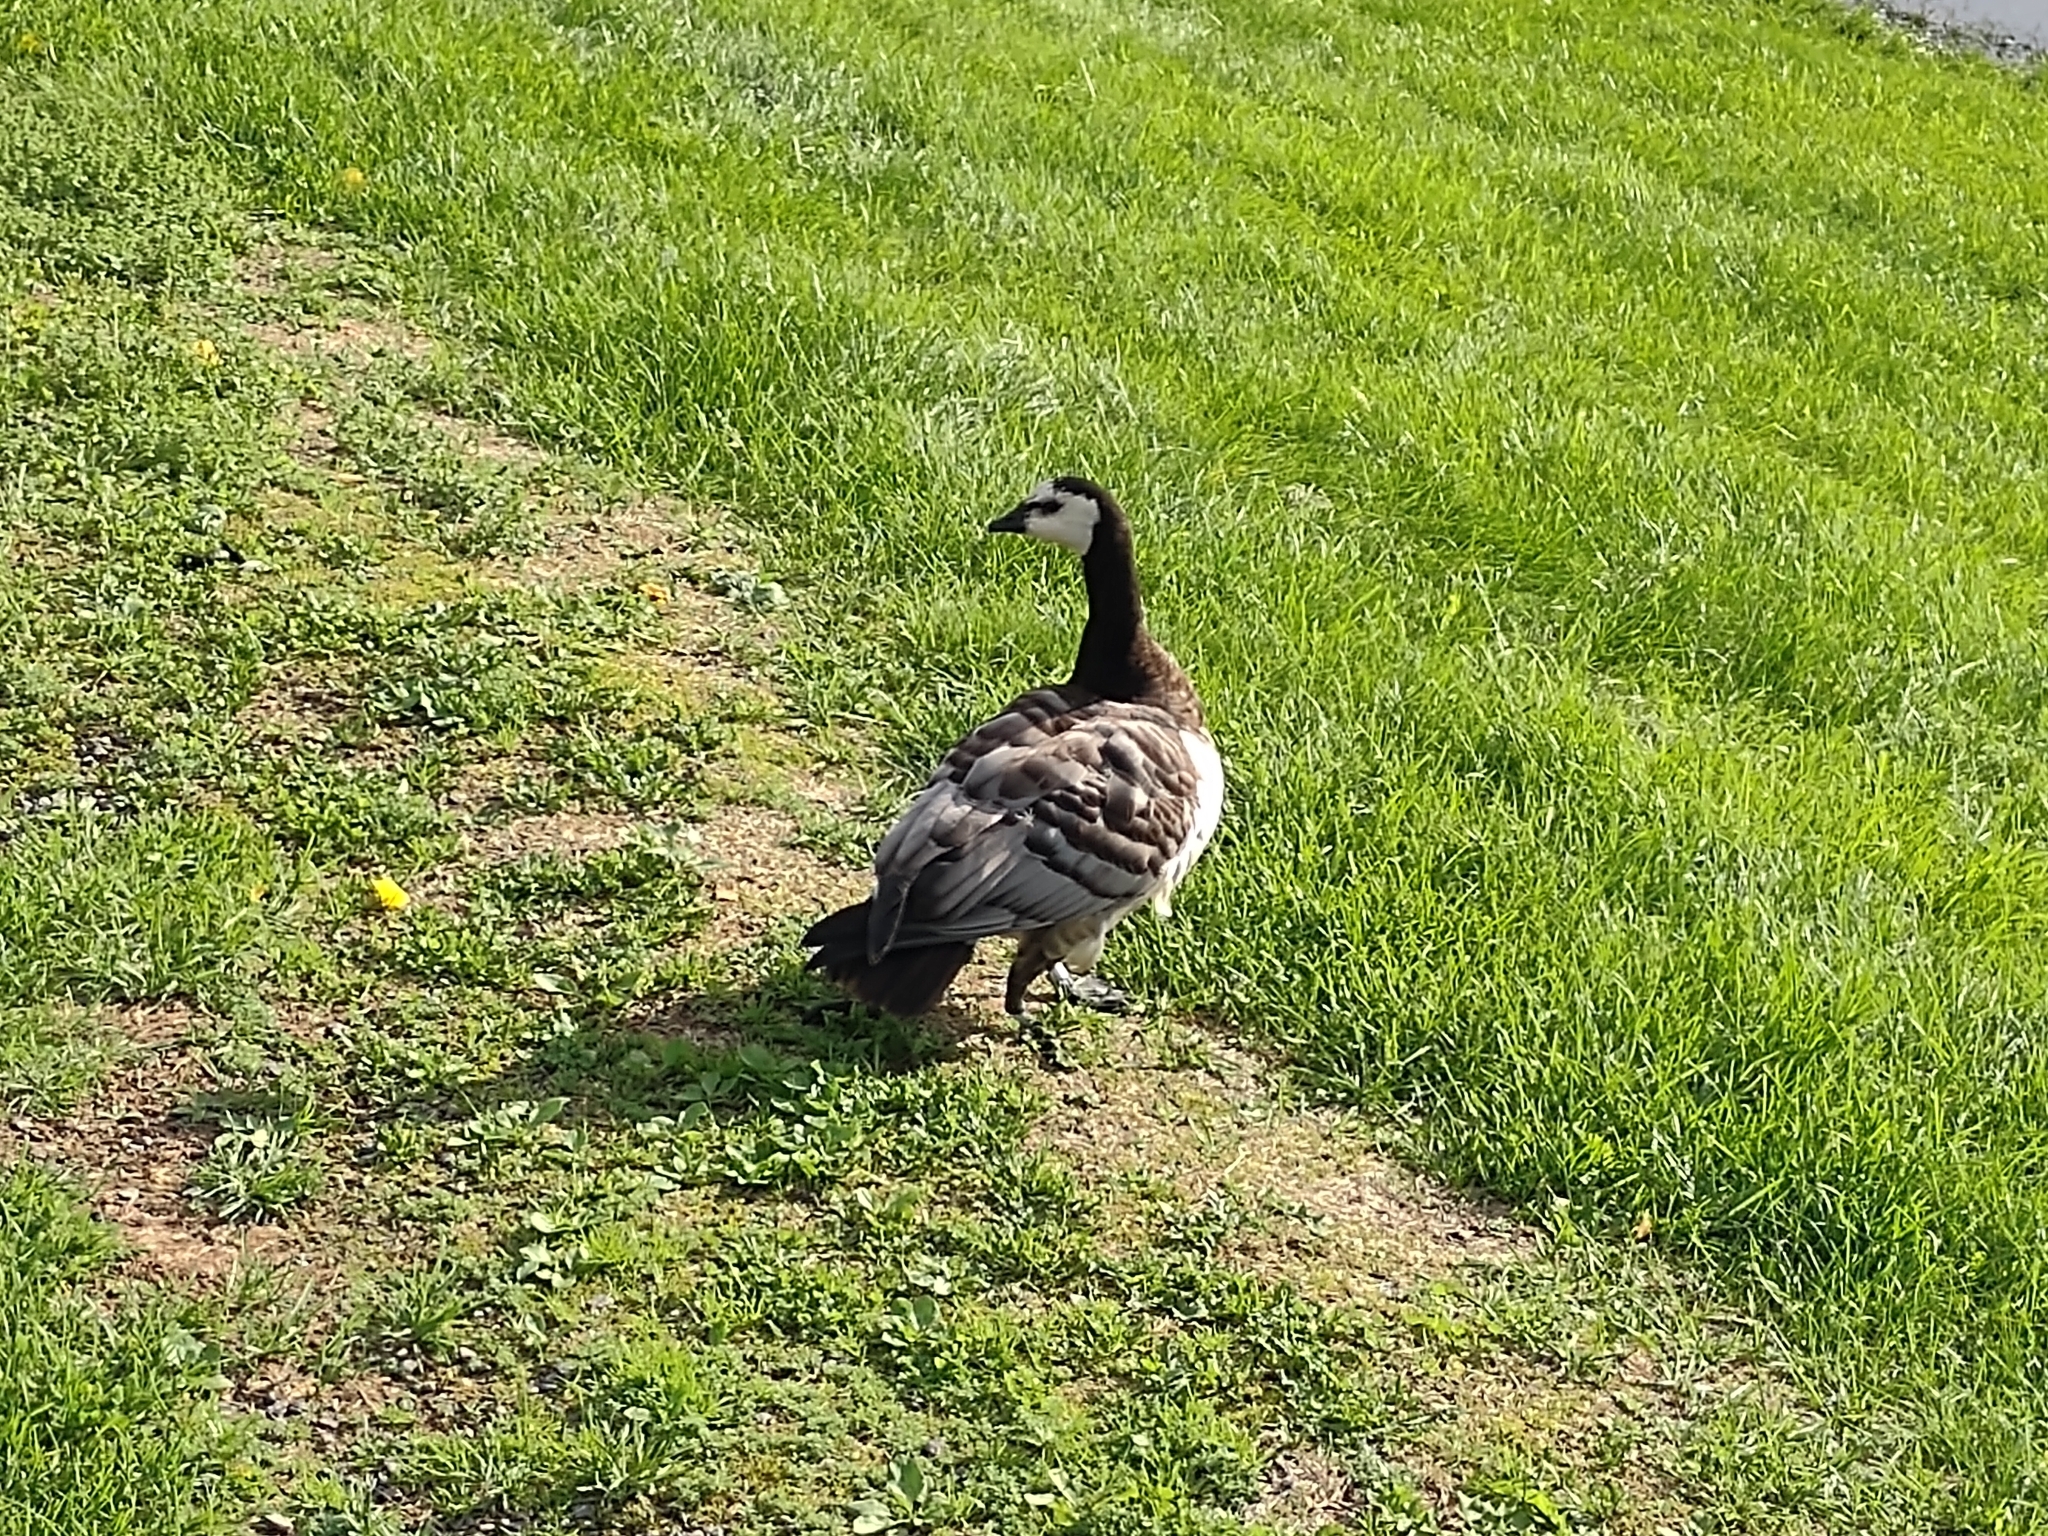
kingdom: Animalia
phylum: Chordata
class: Aves
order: Anseriformes
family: Anatidae
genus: Branta
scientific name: Branta leucopsis
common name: Barnacle goose
